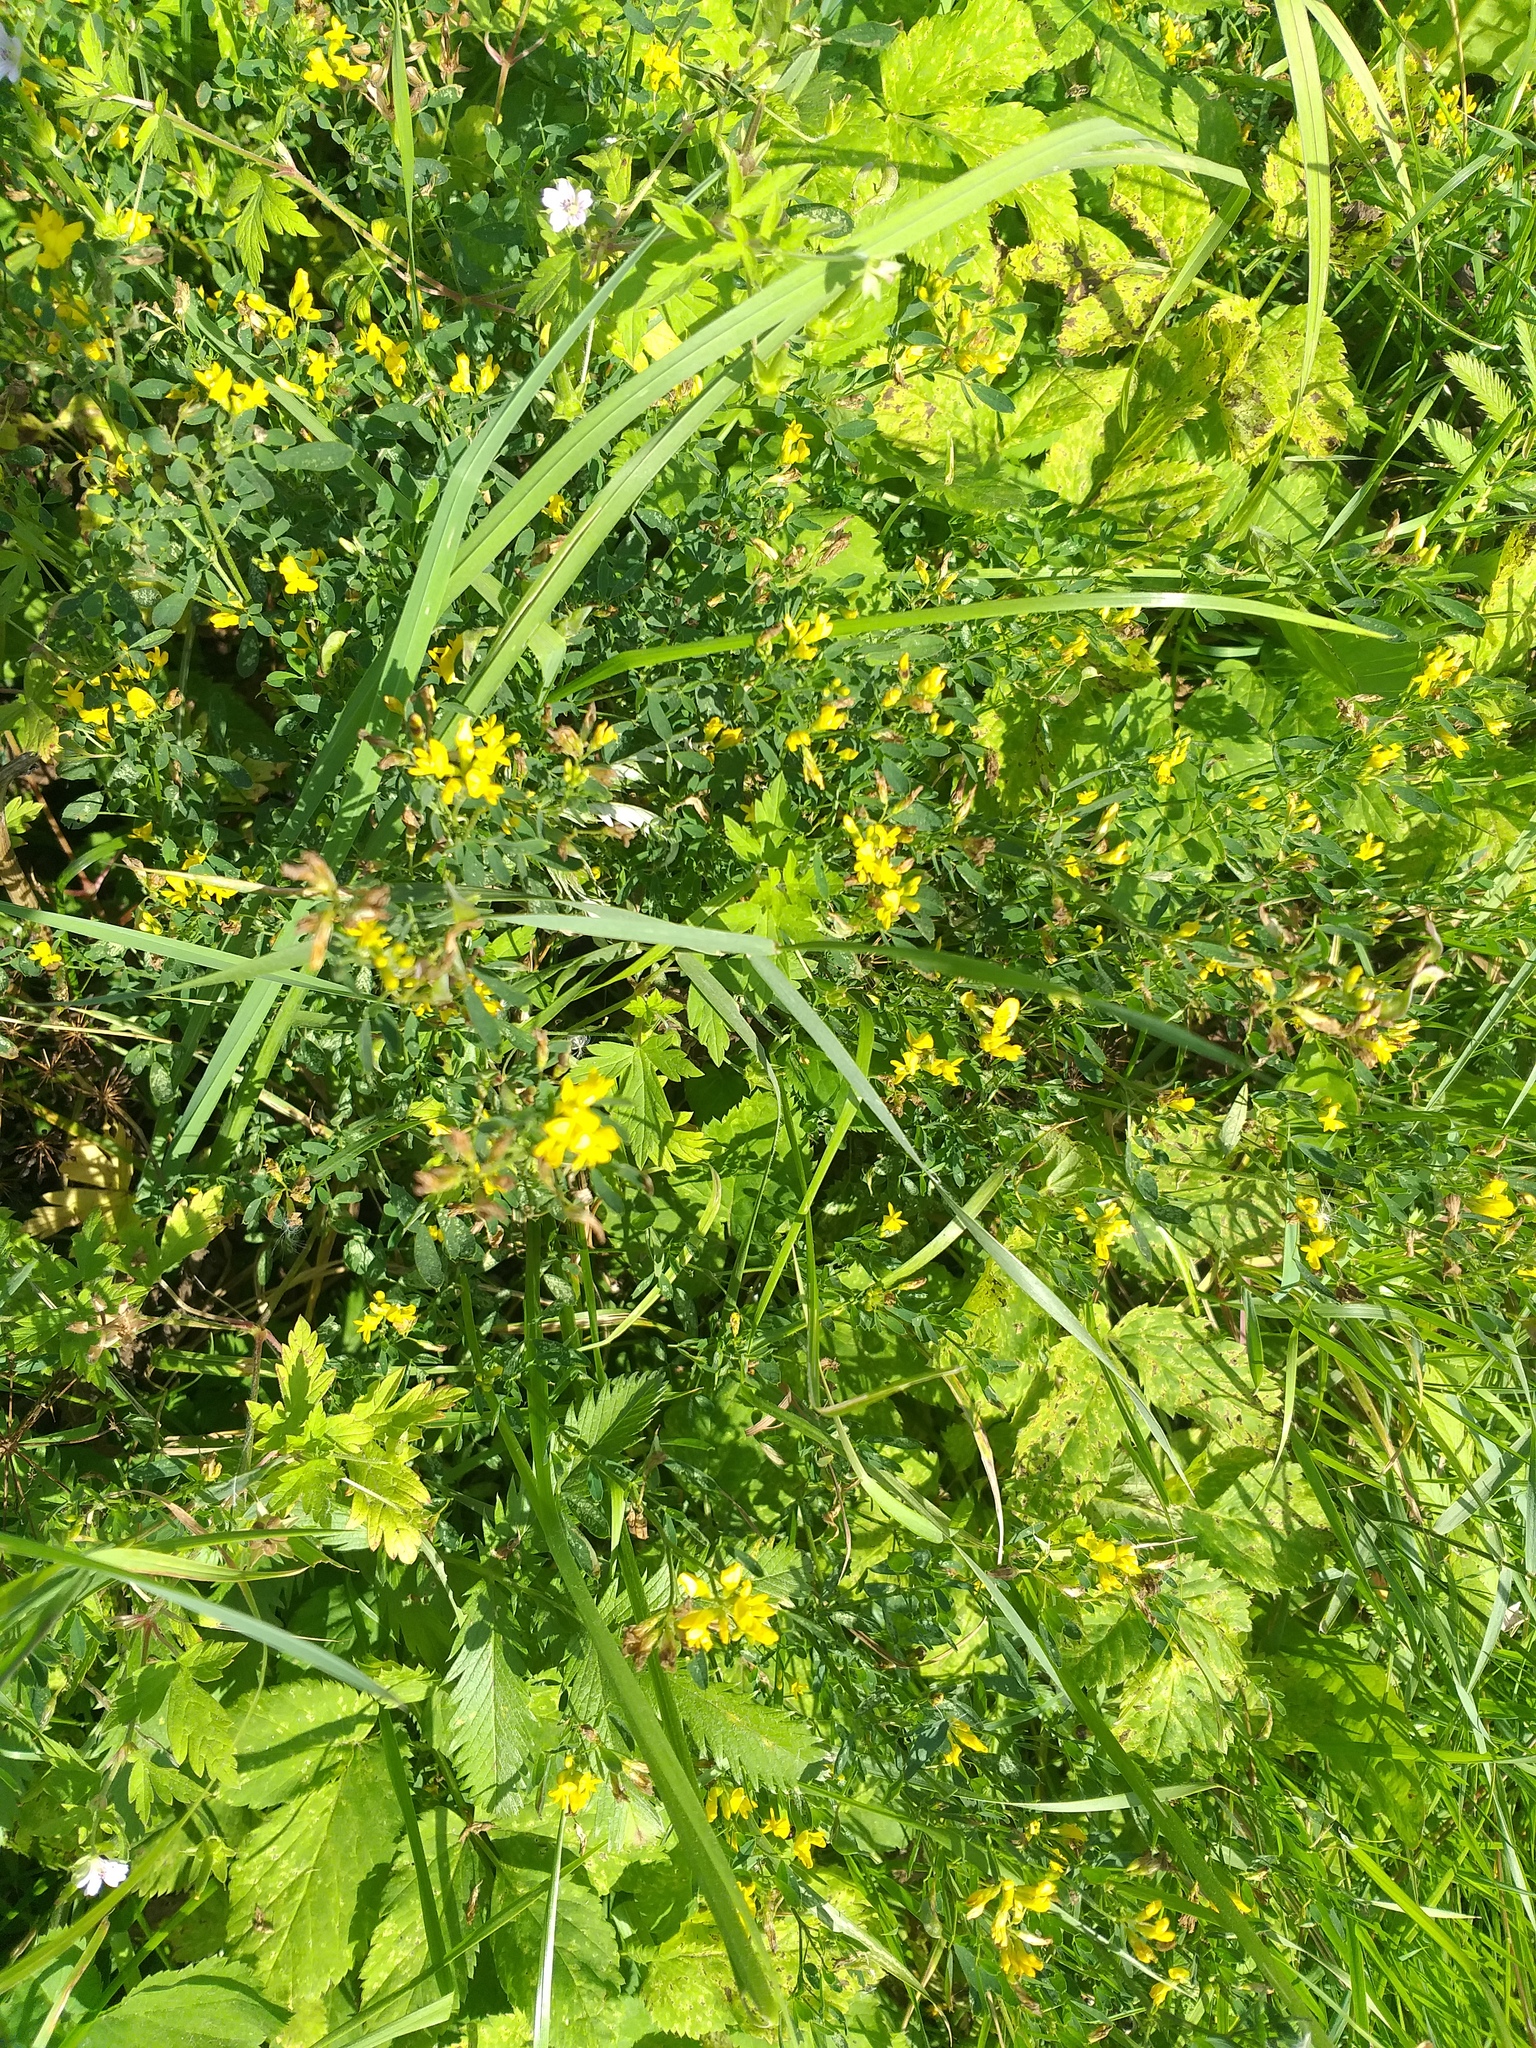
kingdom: Plantae
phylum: Tracheophyta
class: Magnoliopsida
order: Fabales
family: Fabaceae
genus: Medicago
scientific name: Medicago falcata
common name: Sickle medick
